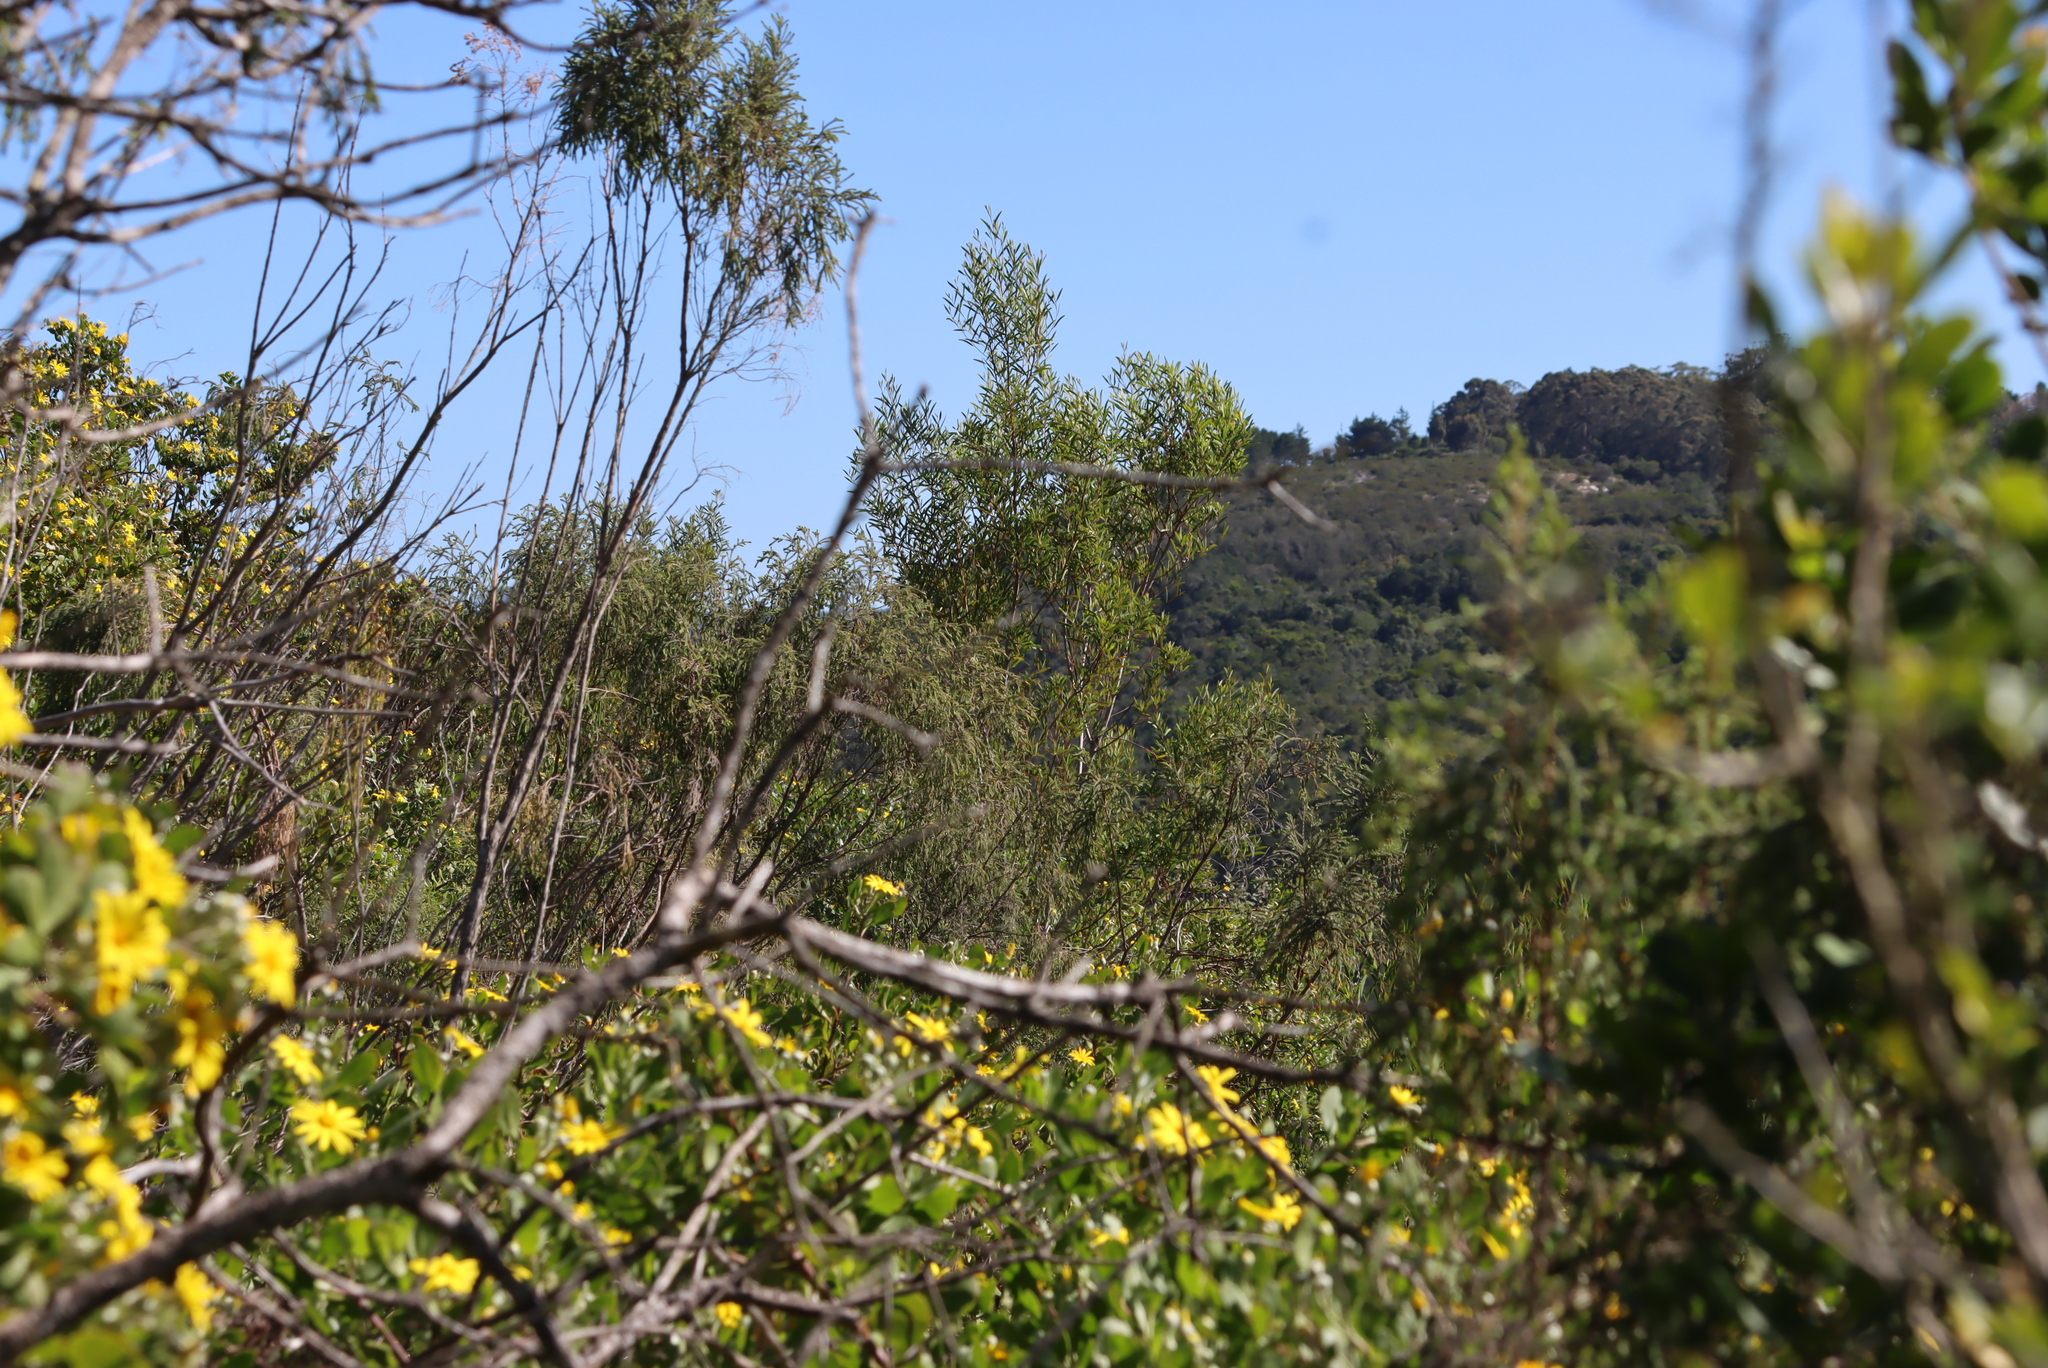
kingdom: Plantae
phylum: Tracheophyta
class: Magnoliopsida
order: Fabales
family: Fabaceae
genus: Acacia
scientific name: Acacia cyclops
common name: Coastal wattle
